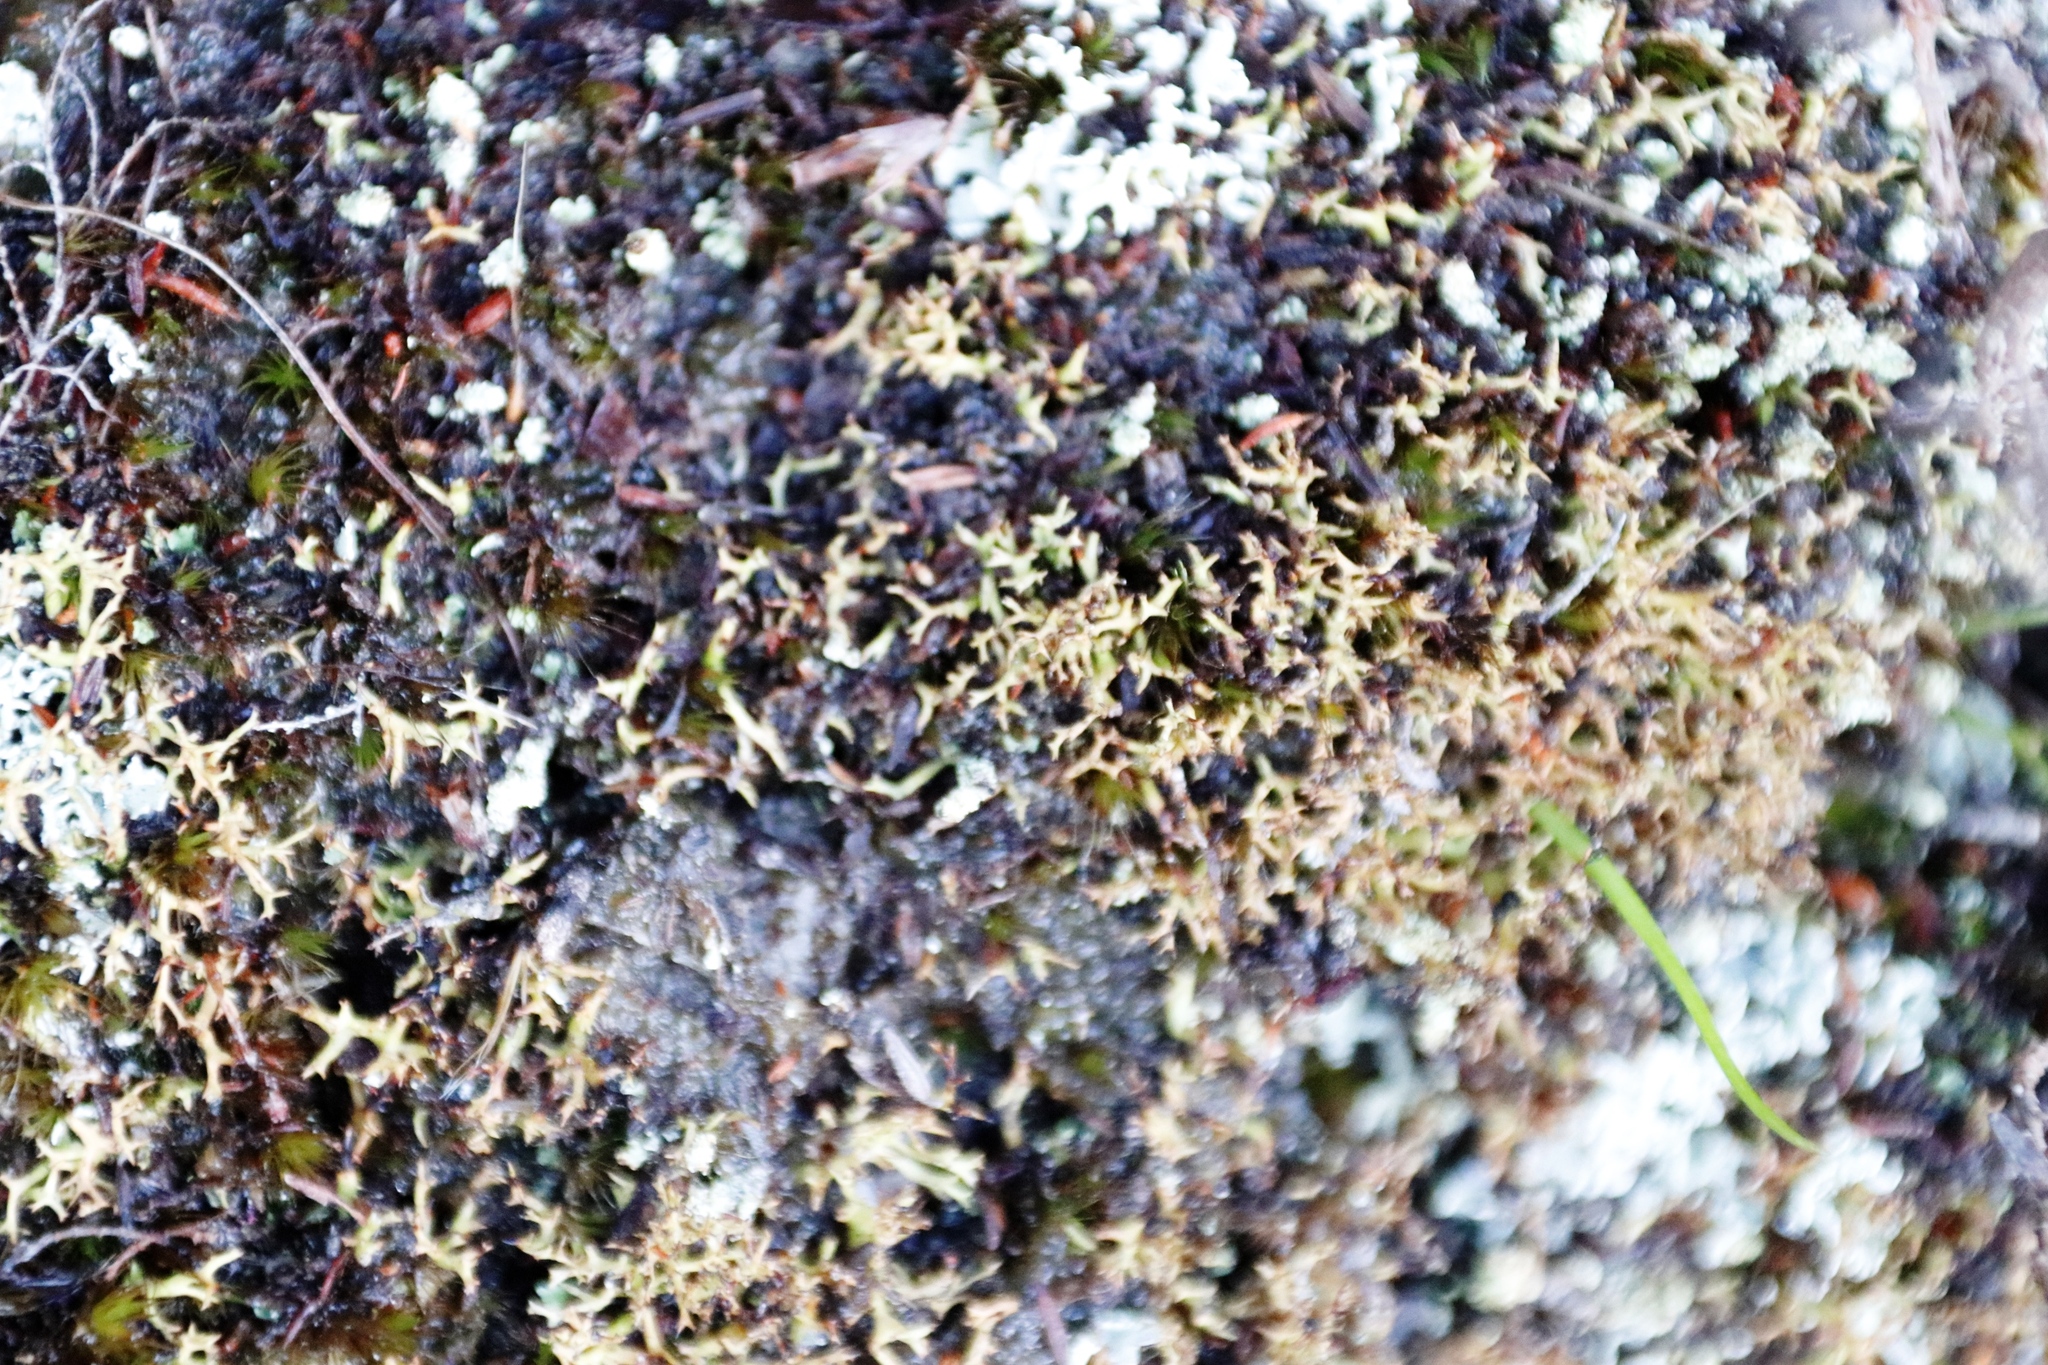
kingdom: Fungi
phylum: Ascomycota
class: Lecanoromycetes
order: Lecanorales
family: Cladoniaceae
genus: Cladia
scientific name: Cladia aggregata
